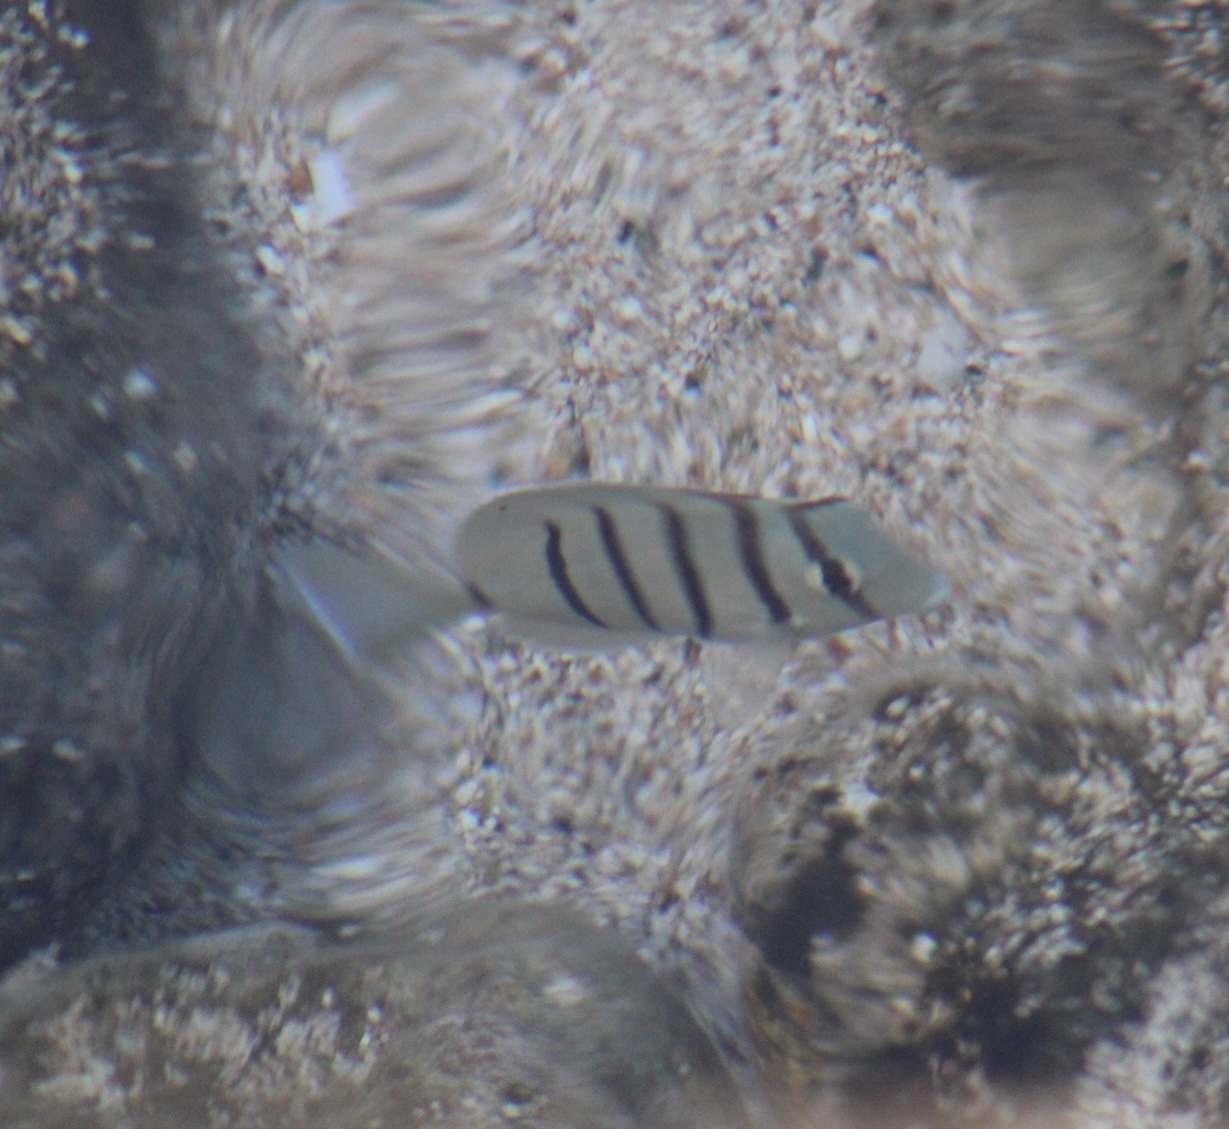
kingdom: Animalia
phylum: Chordata
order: Perciformes
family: Acanthuridae
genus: Acanthurus
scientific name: Acanthurus triostegus
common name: Convict surgeonfish
